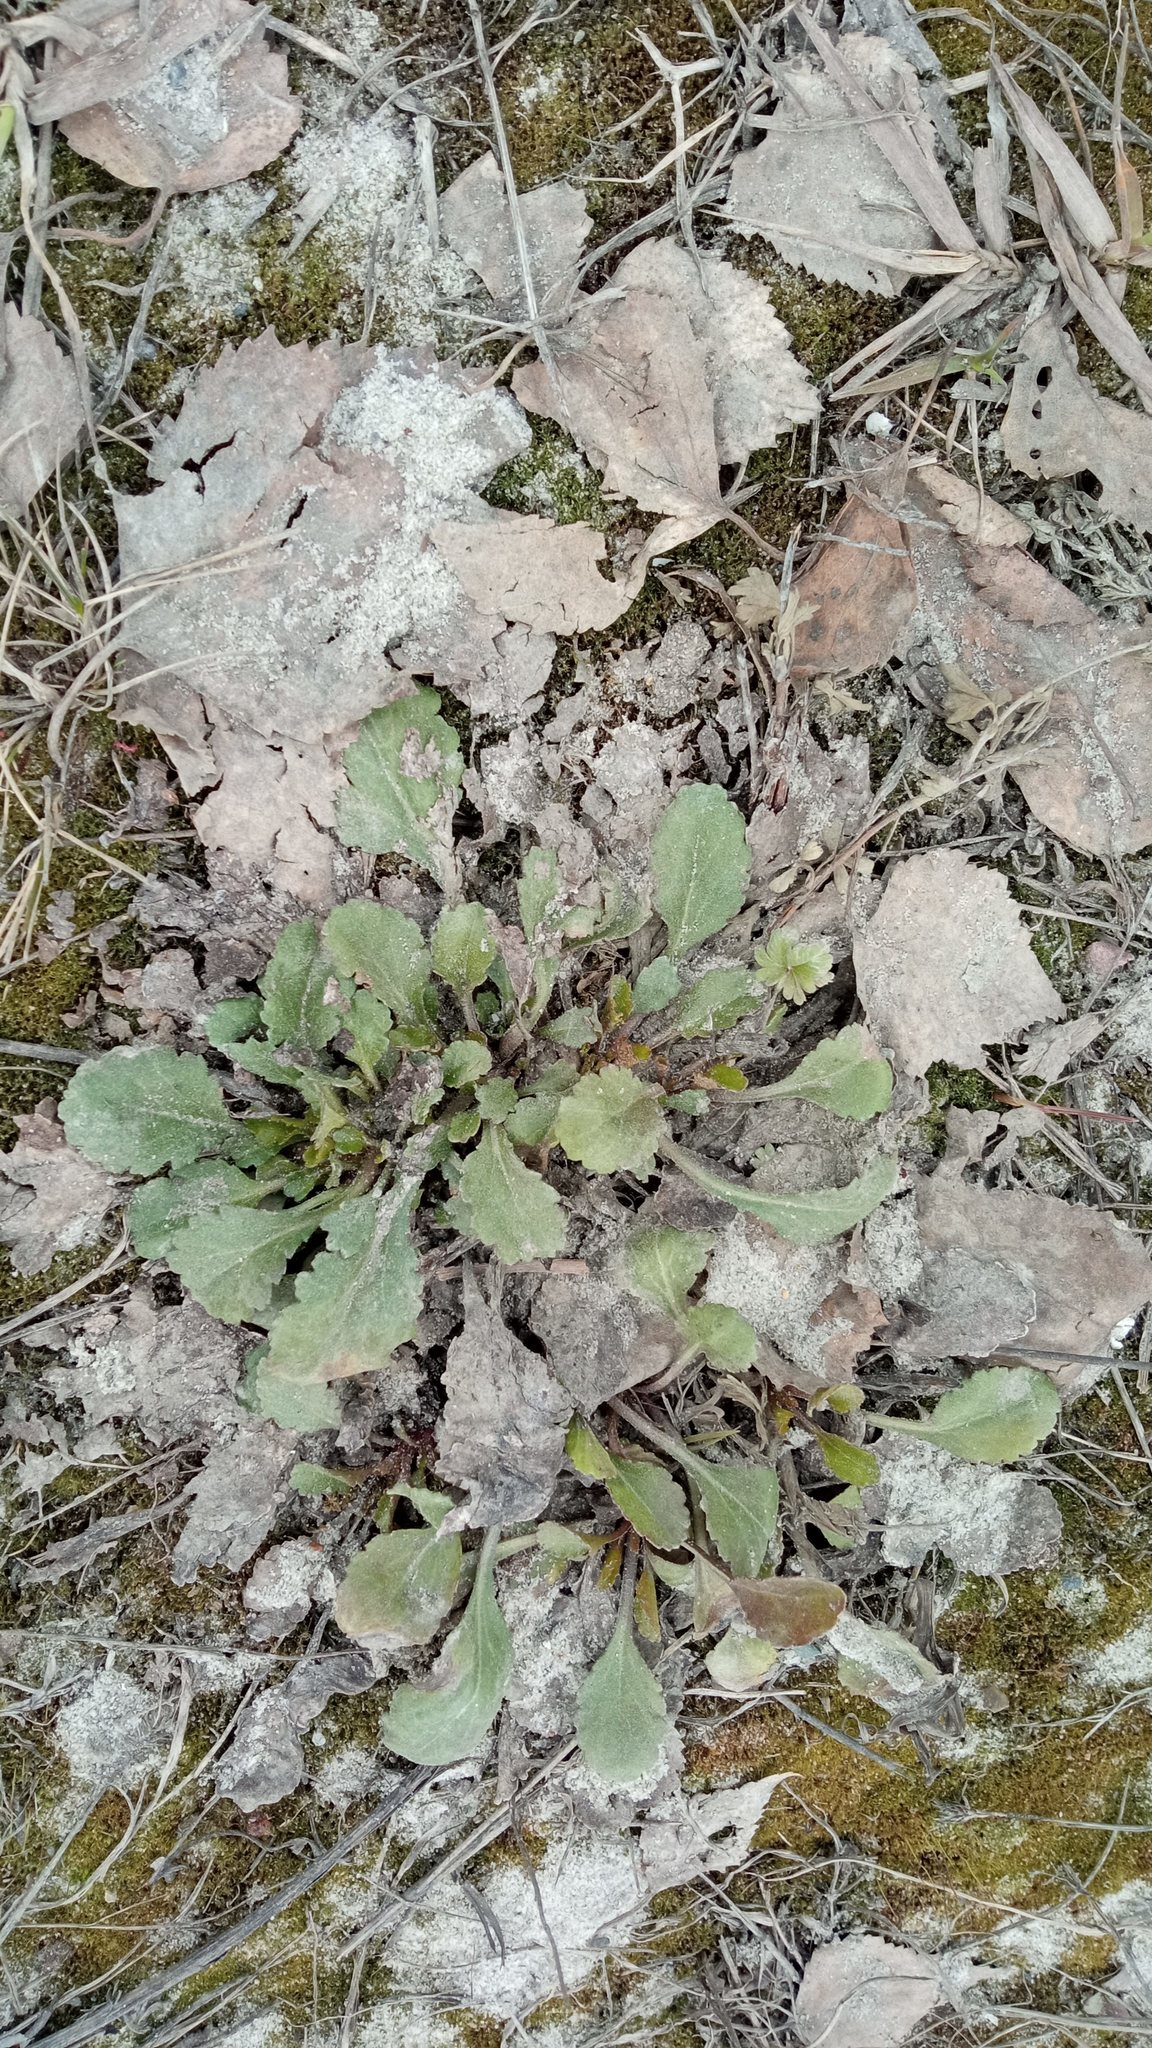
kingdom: Plantae
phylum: Tracheophyta
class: Magnoliopsida
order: Asterales
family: Asteraceae
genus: Leucanthemum
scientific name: Leucanthemum ircutianum
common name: Daisy
